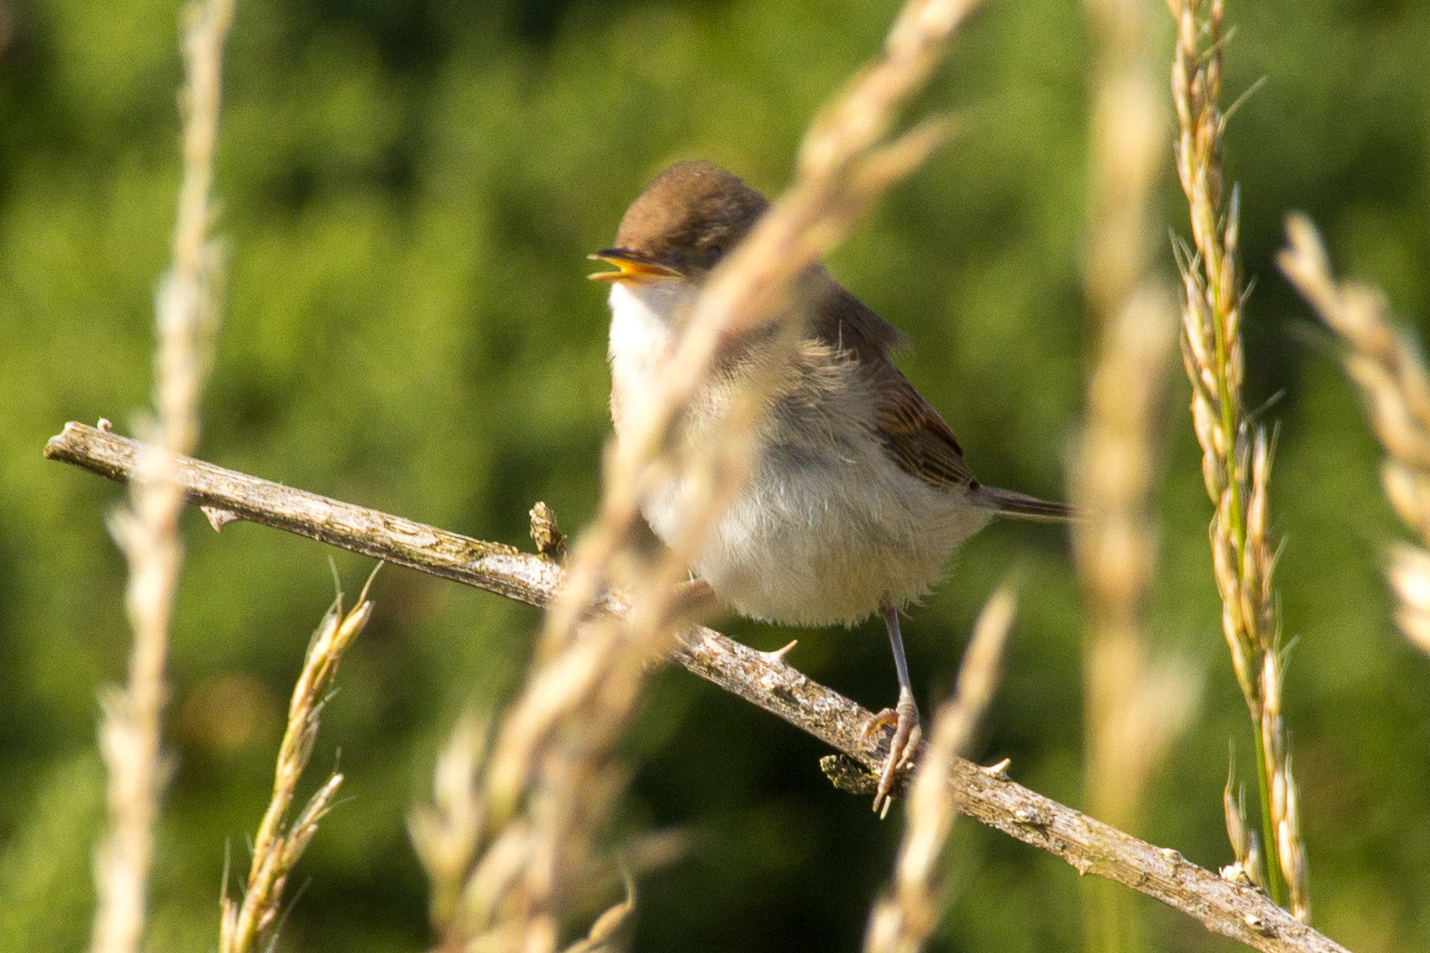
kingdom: Animalia
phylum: Chordata
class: Aves
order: Passeriformes
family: Sylviidae
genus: Sylvia
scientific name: Sylvia communis
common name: Common whitethroat
